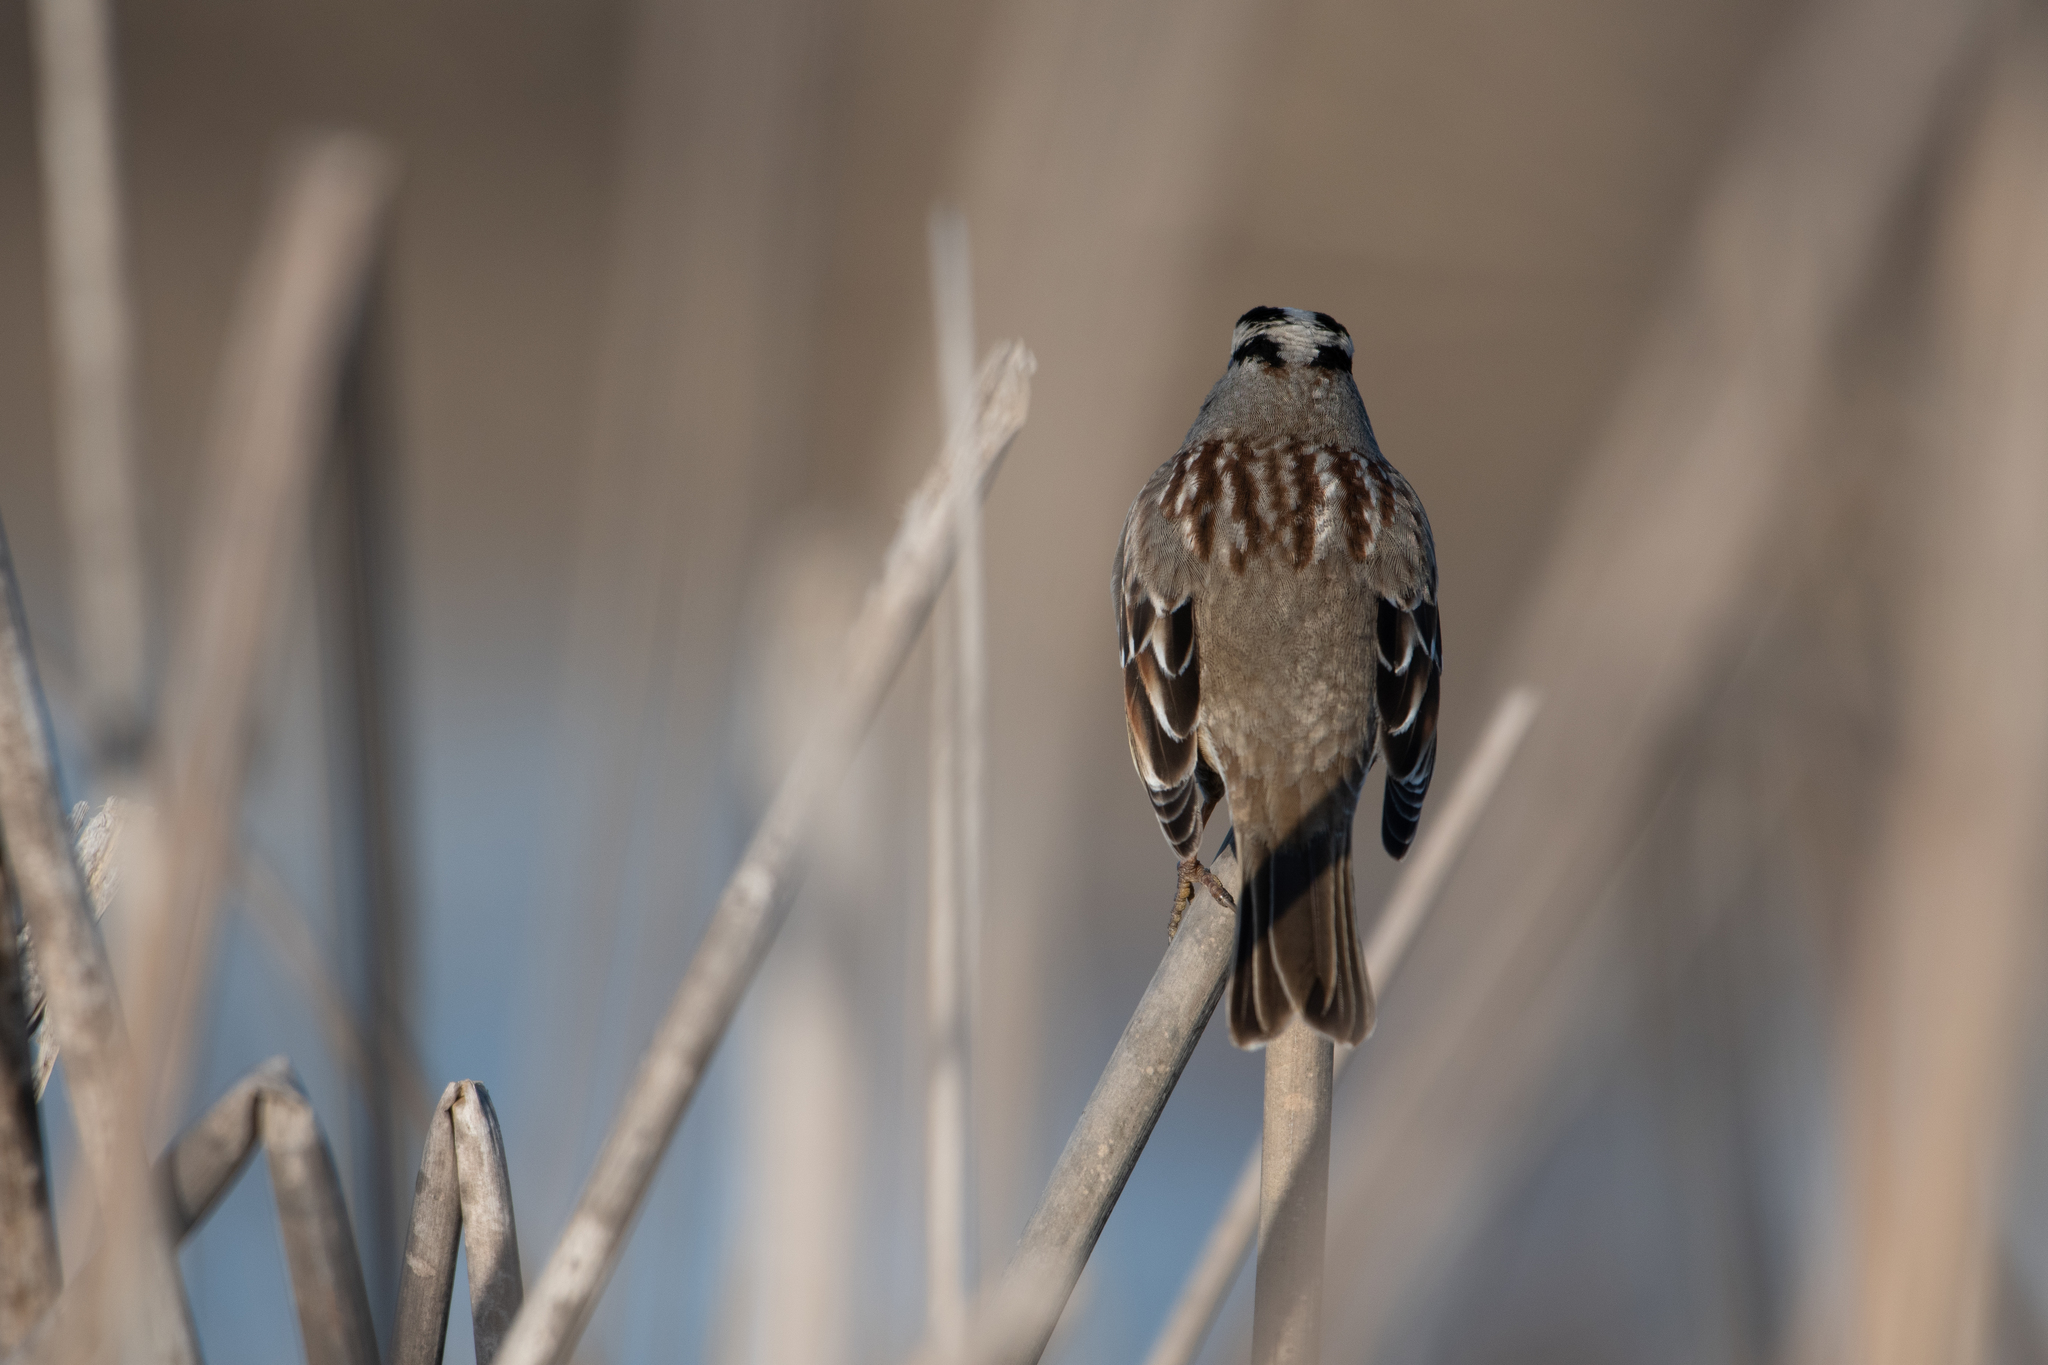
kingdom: Animalia
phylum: Chordata
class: Aves
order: Passeriformes
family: Passerellidae
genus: Zonotrichia
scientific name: Zonotrichia leucophrys
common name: White-crowned sparrow
